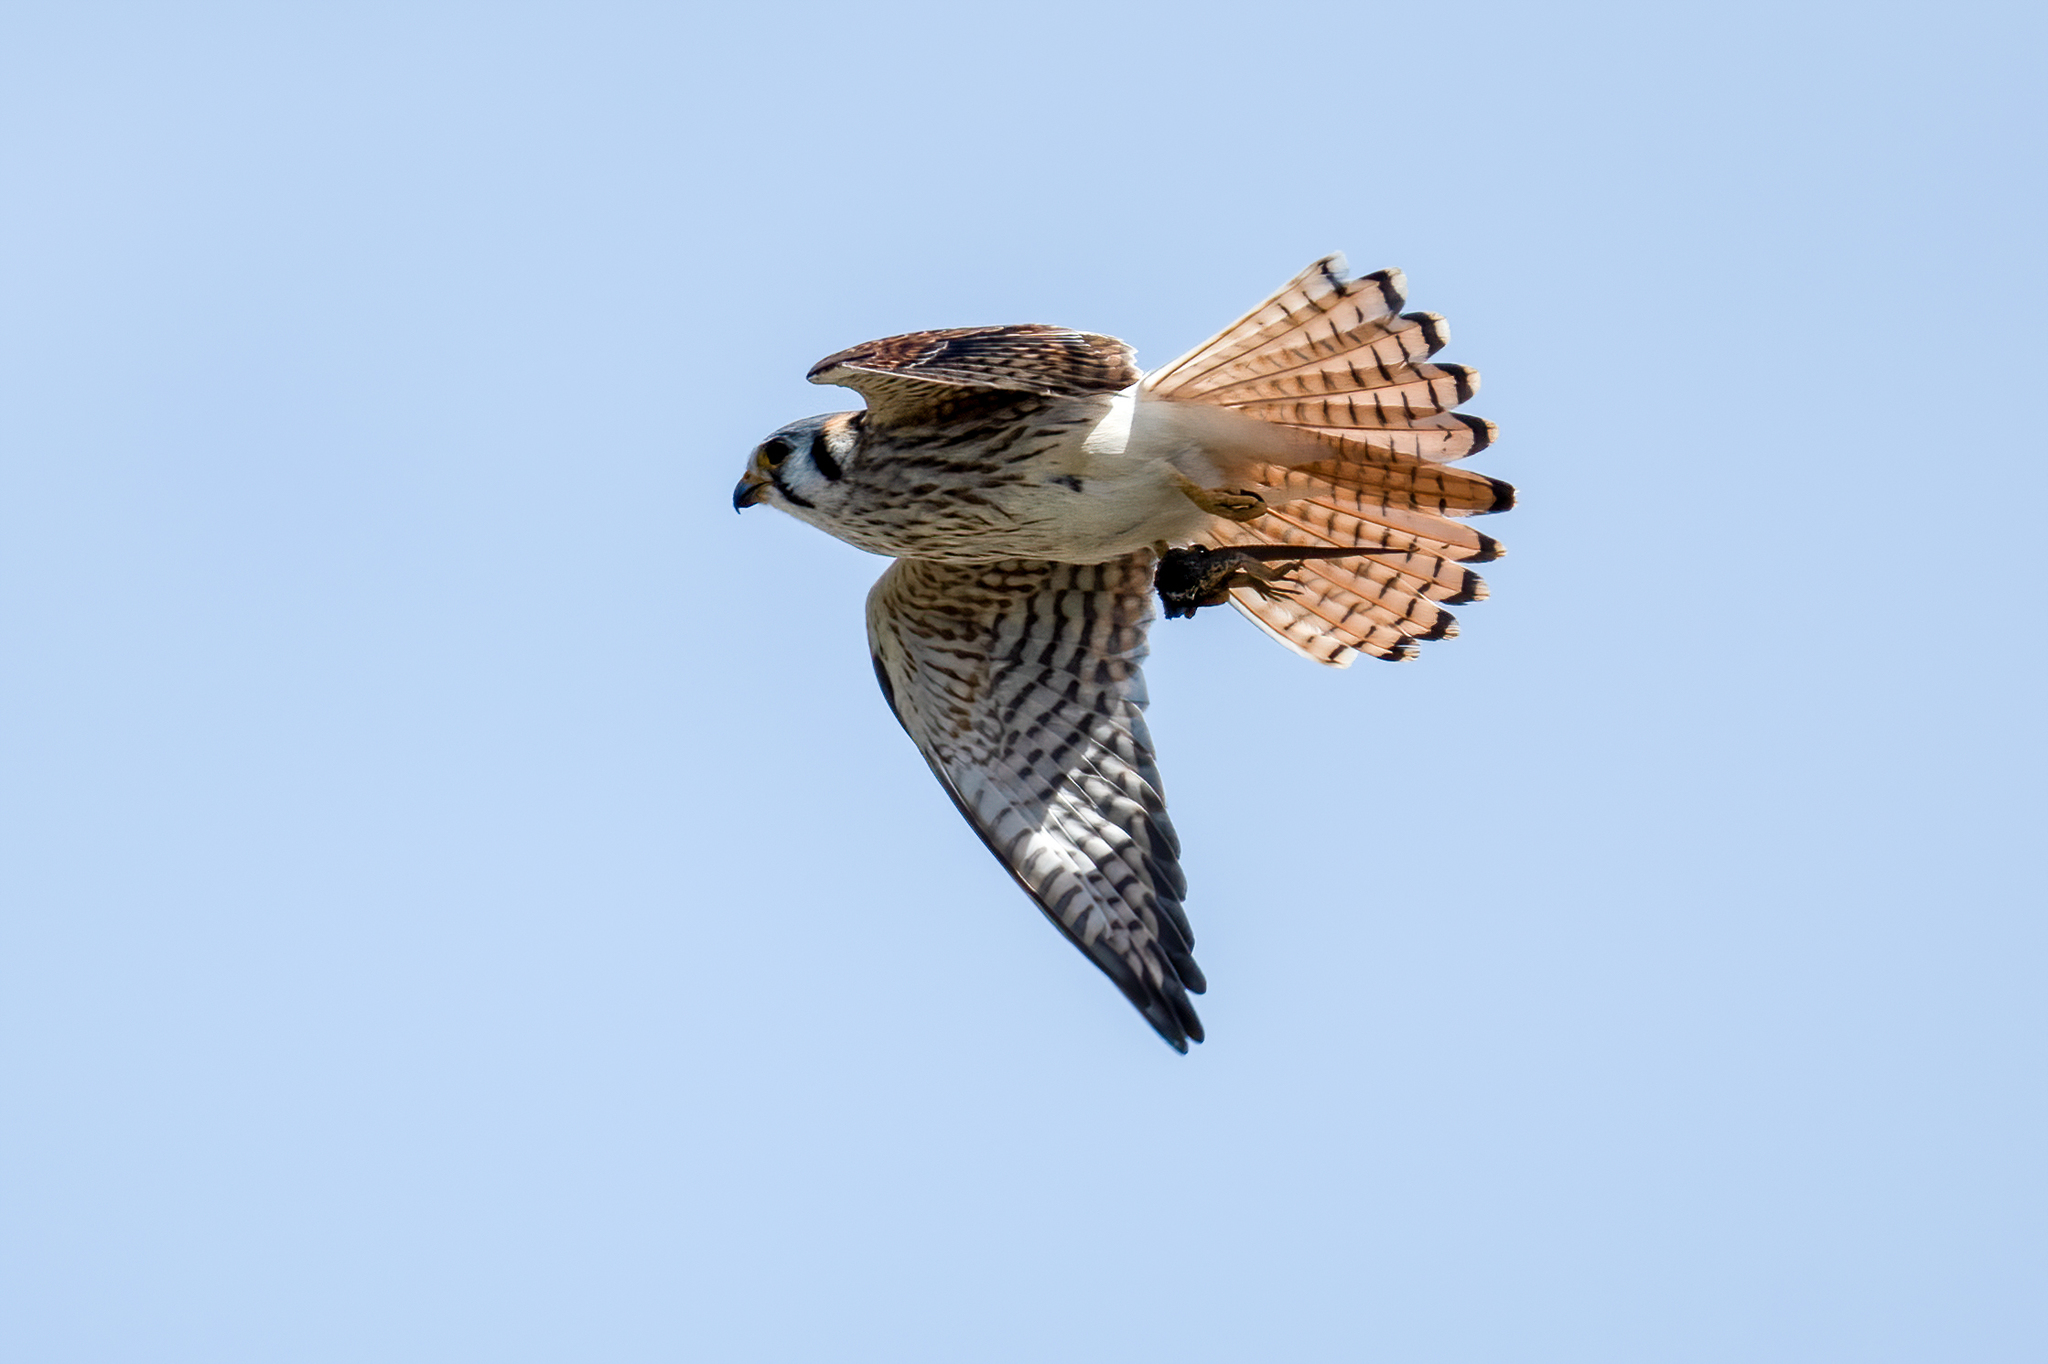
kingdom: Animalia
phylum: Chordata
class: Aves
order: Falconiformes
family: Falconidae
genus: Falco
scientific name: Falco sparverius
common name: American kestrel
